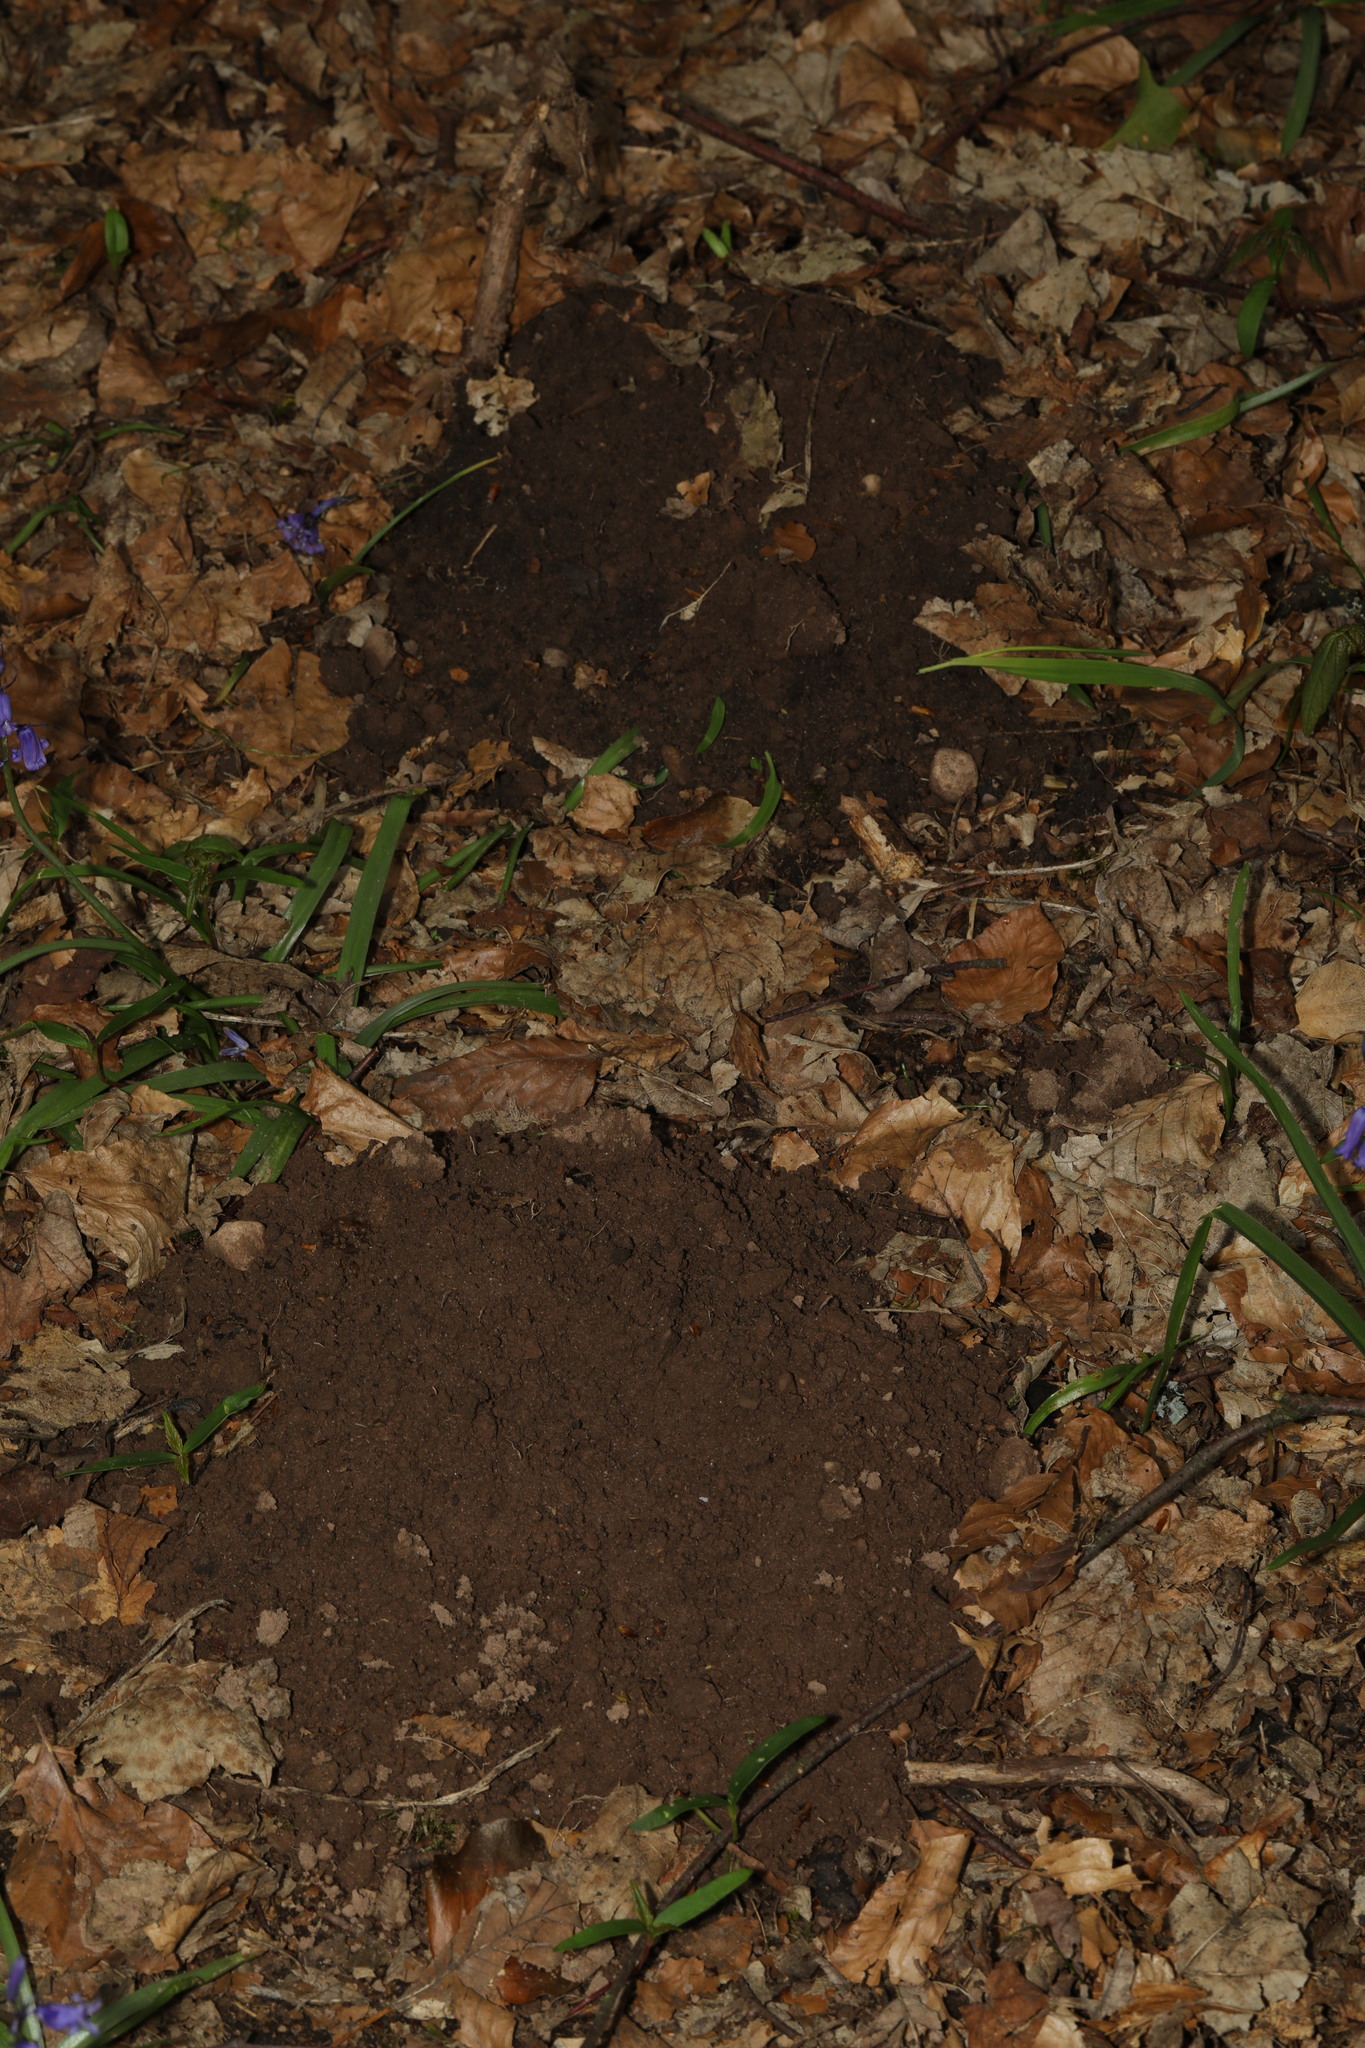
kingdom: Animalia
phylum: Chordata
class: Mammalia
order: Soricomorpha
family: Talpidae
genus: Talpa
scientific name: Talpa europaea
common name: European mole
